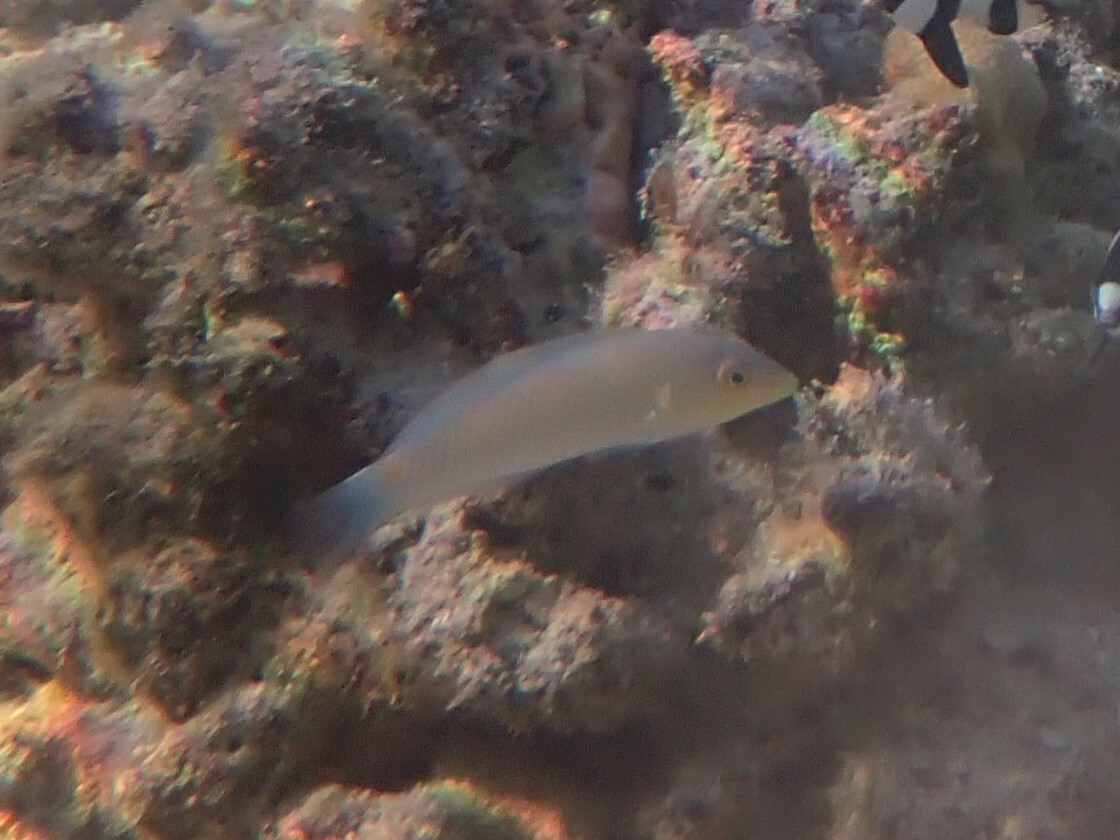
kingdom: Animalia
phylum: Chordata
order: Perciformes
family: Labridae
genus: Halichoeres
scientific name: Halichoeres trimaculatus
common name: Three-spot wrasse
